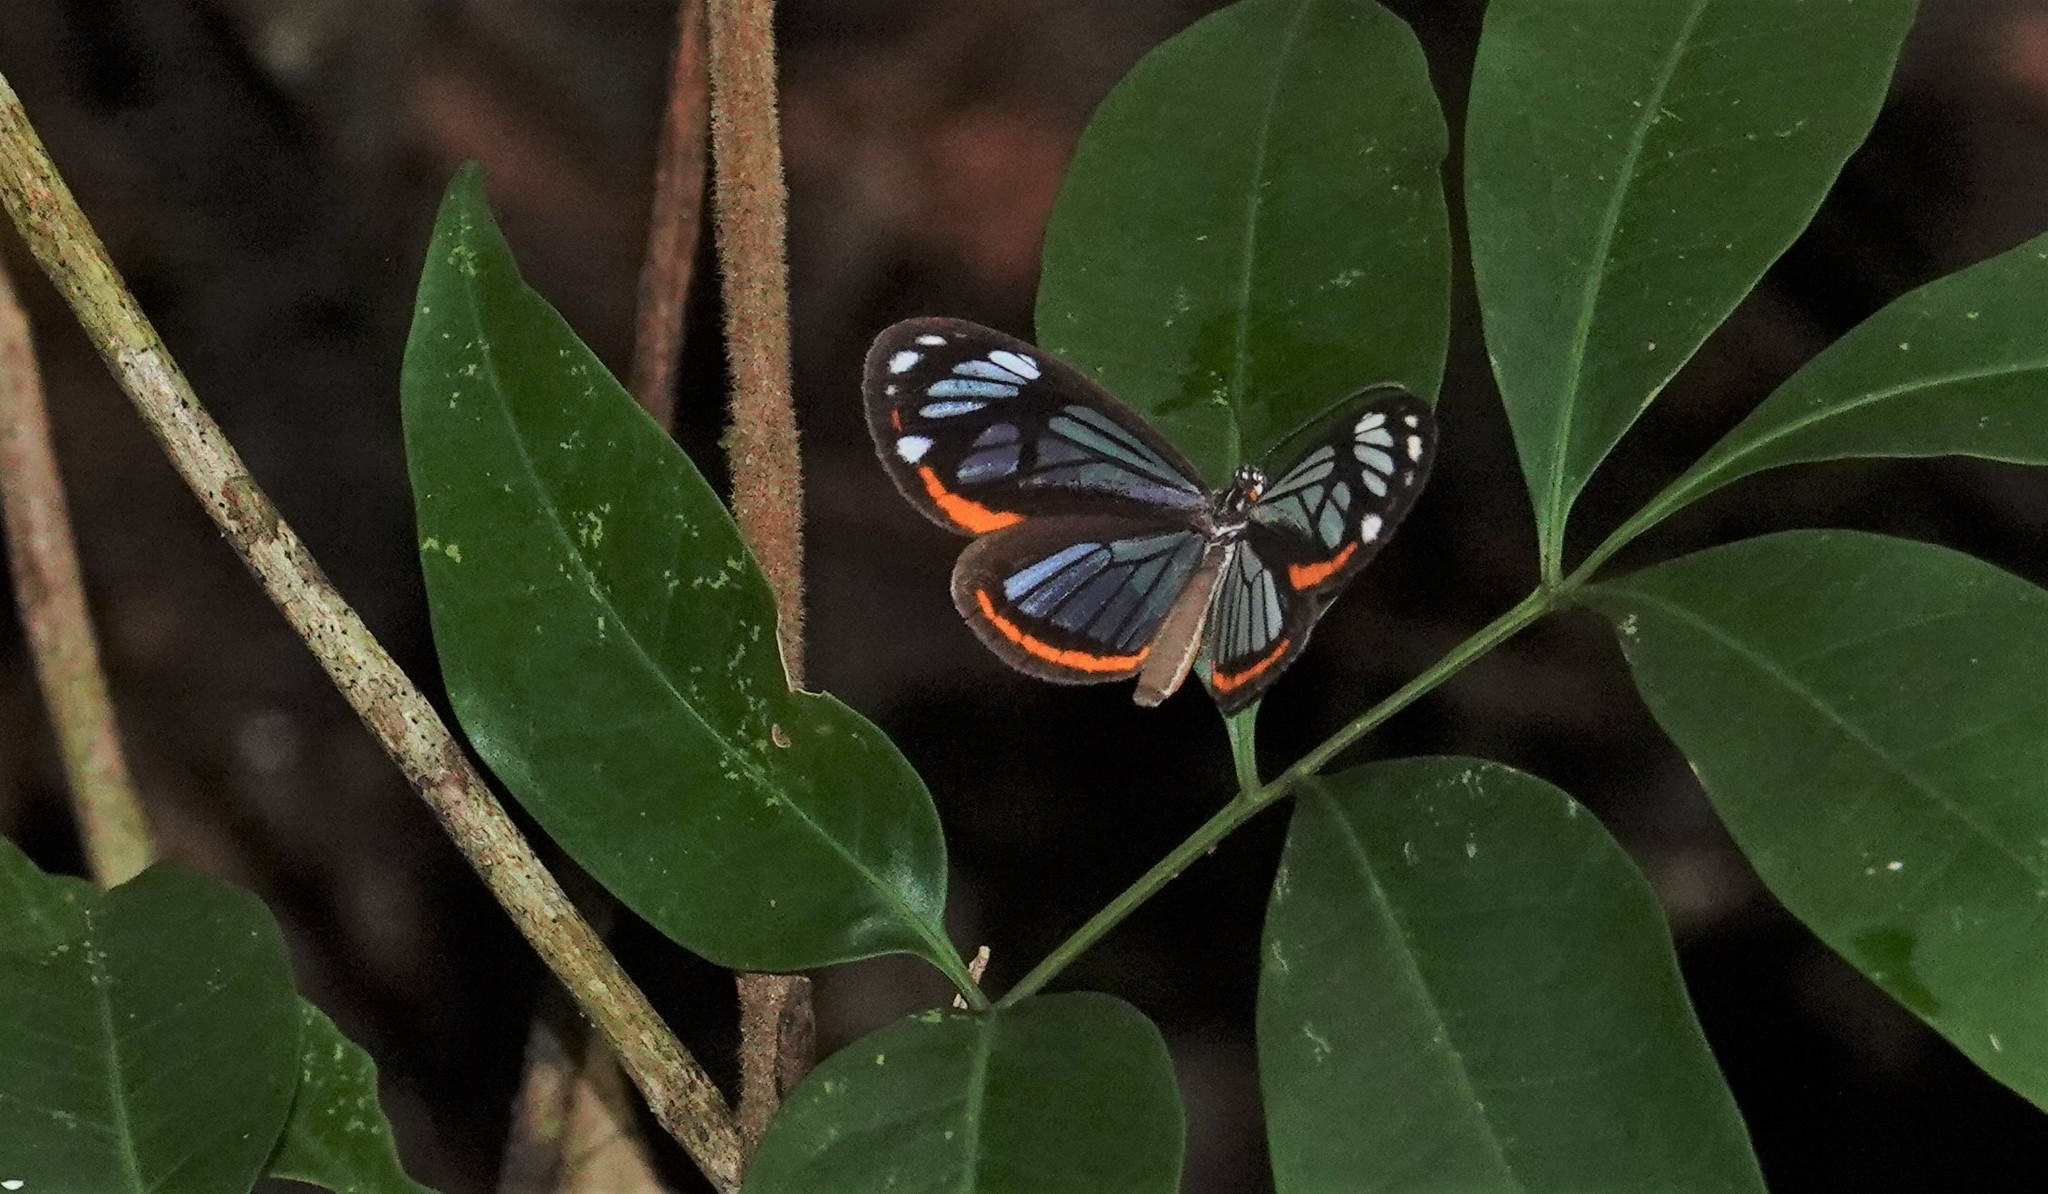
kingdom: Animalia
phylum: Arthropoda
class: Insecta
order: Lepidoptera
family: Riodinidae
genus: Stalachtis
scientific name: Stalachtis phaedusa
